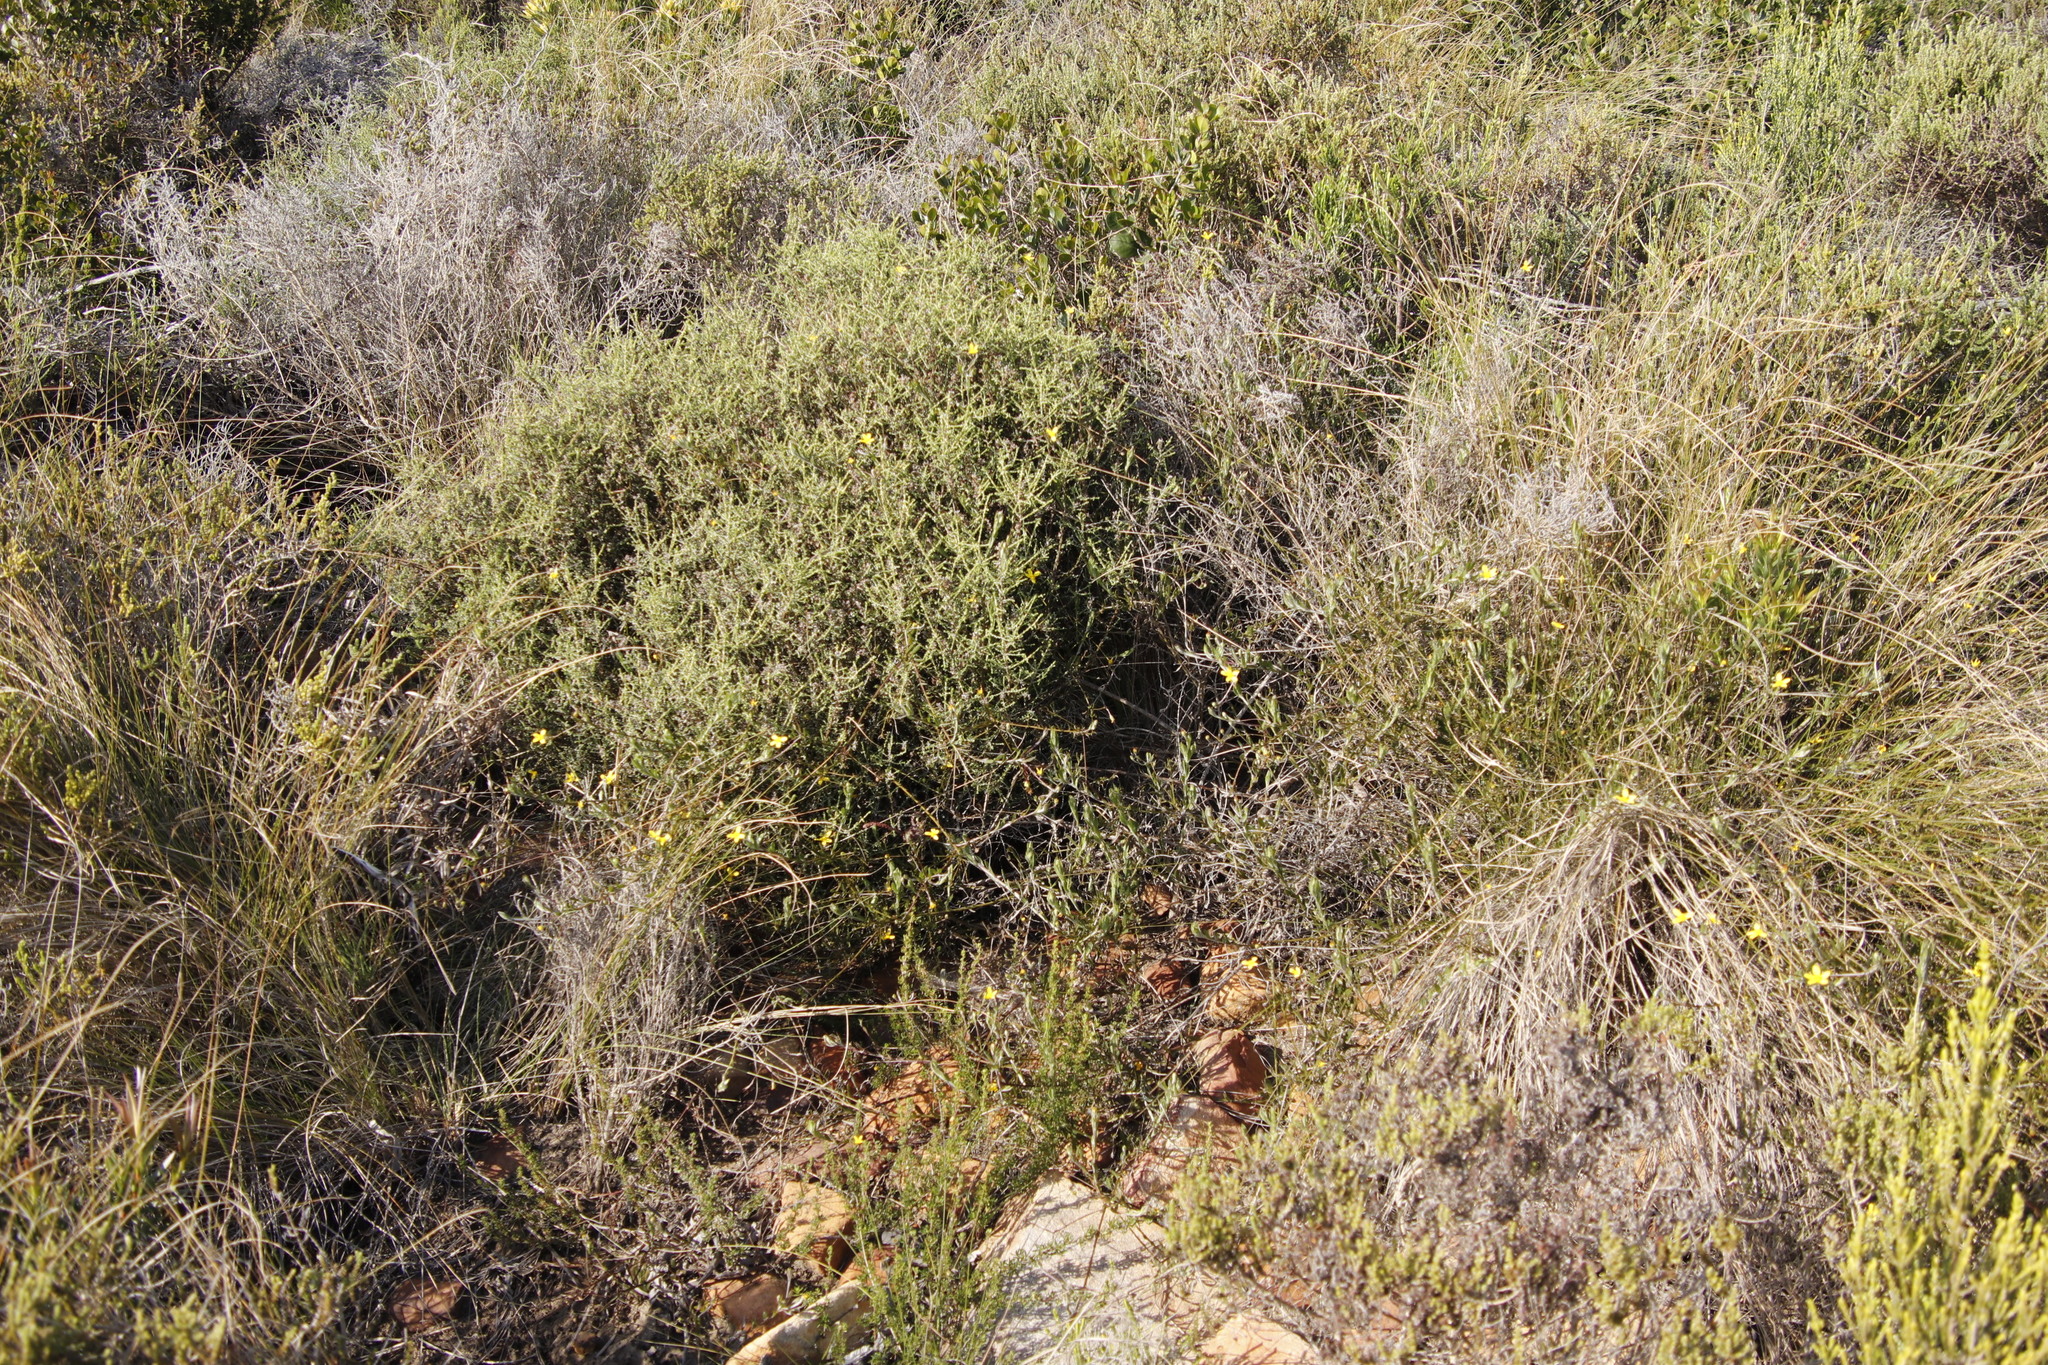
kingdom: Plantae
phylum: Tracheophyta
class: Magnoliopsida
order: Asterales
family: Asteraceae
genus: Osteospermum
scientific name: Osteospermum ciliatum
